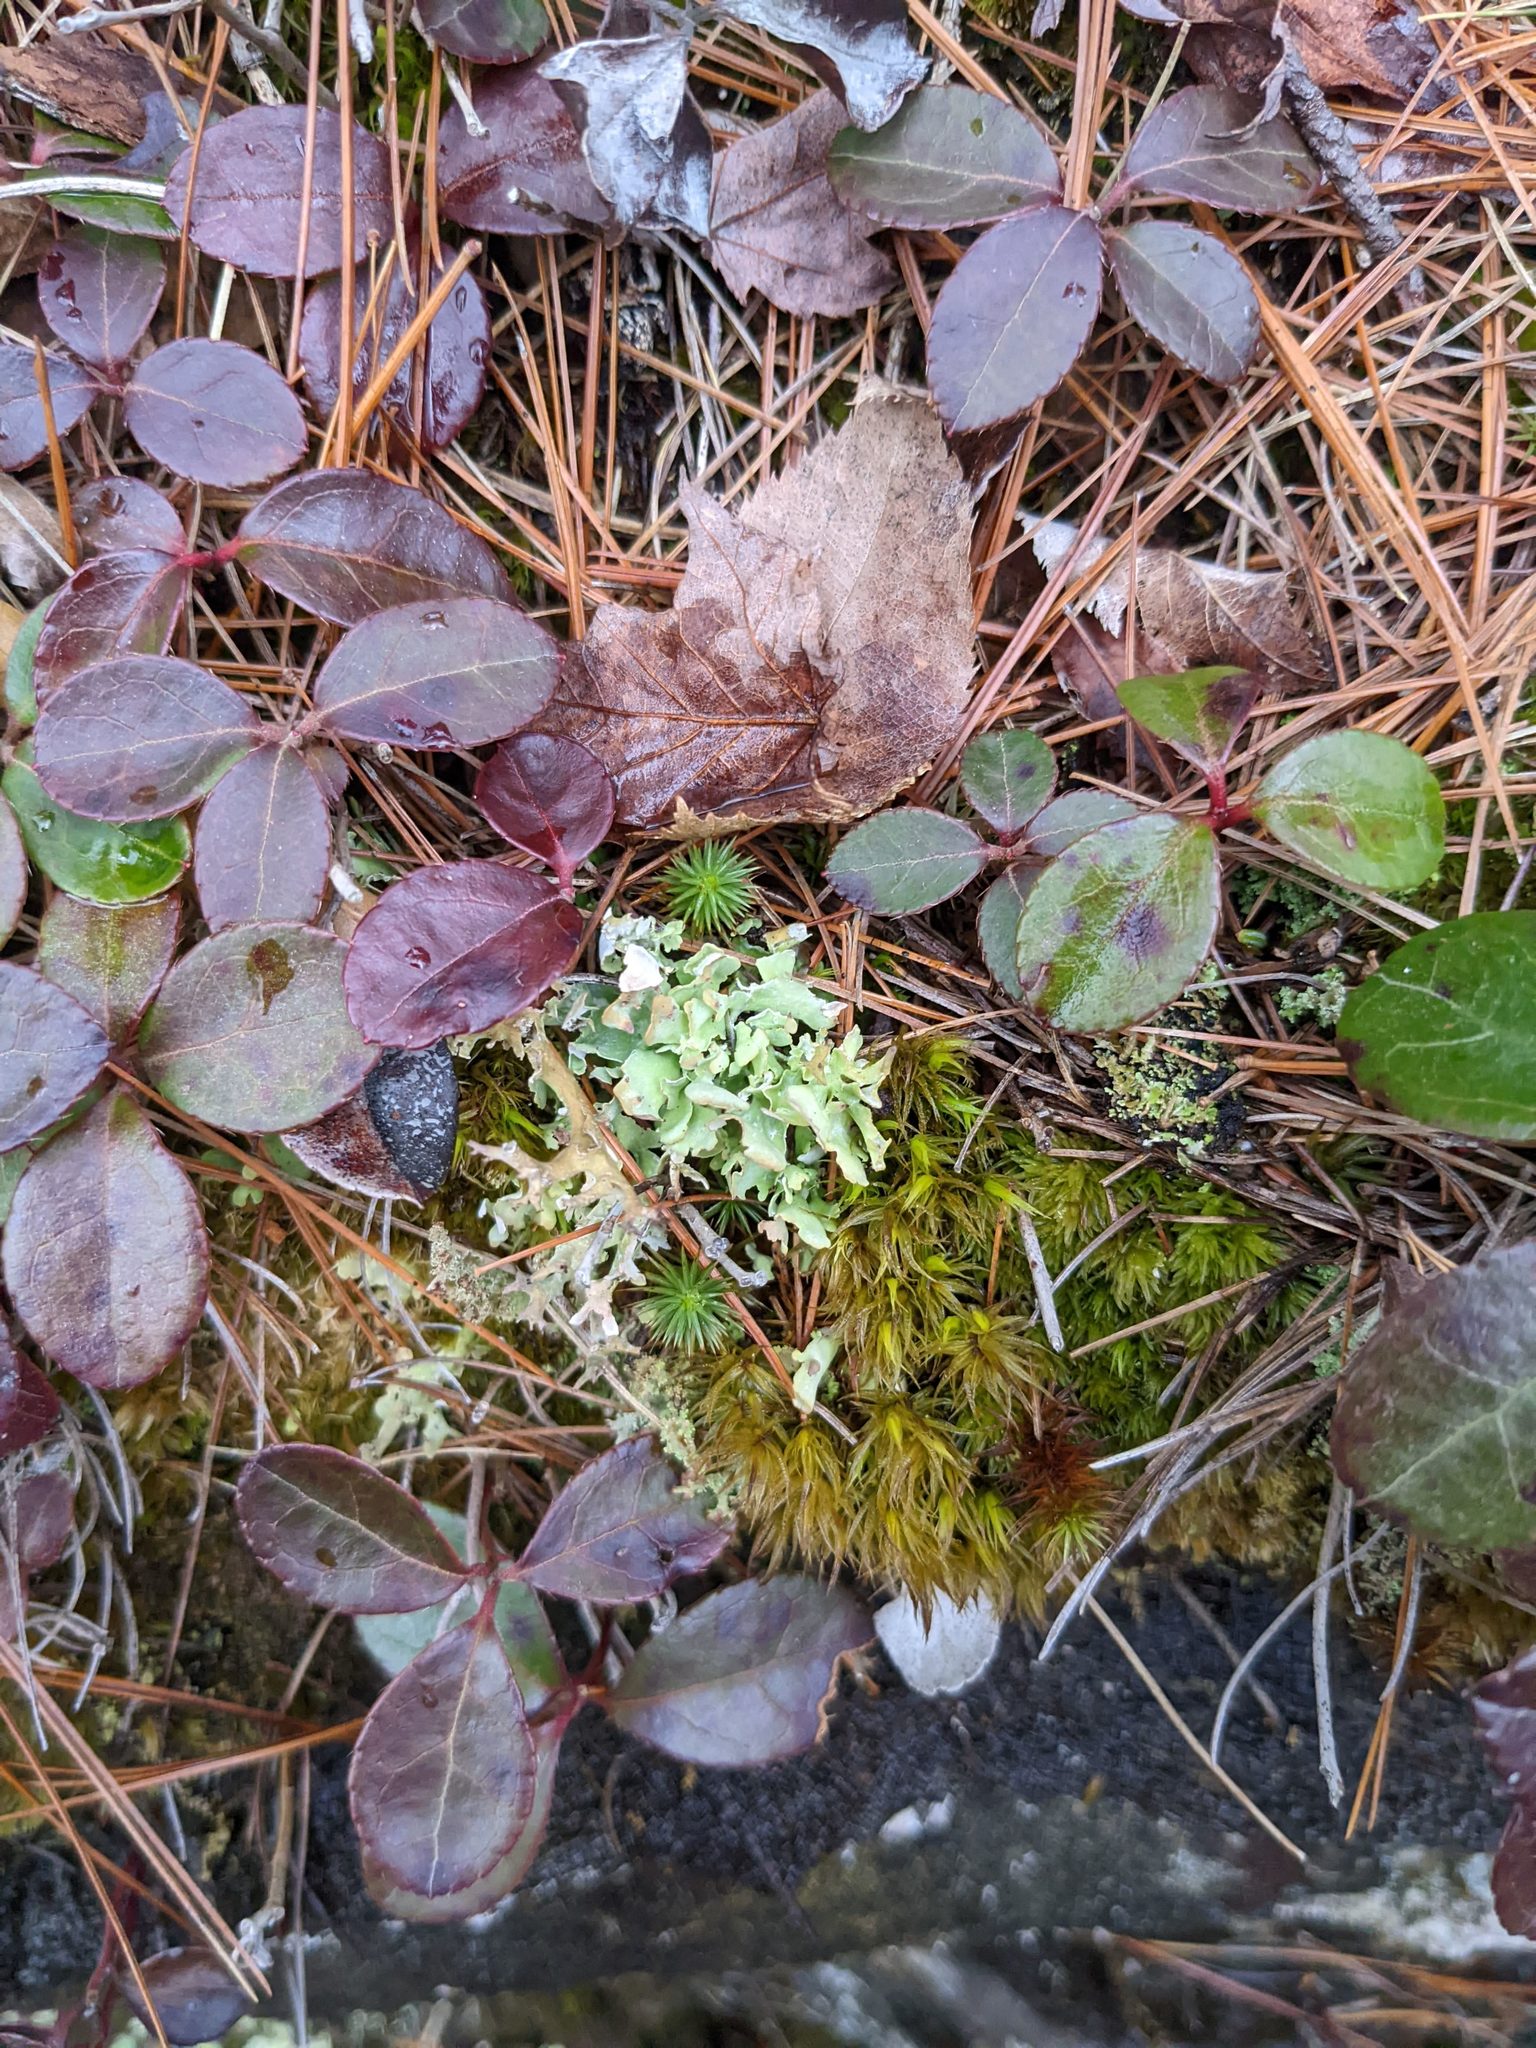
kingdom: Plantae
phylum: Tracheophyta
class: Magnoliopsida
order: Ericales
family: Ericaceae
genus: Gaultheria
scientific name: Gaultheria procumbens
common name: Checkerberry
